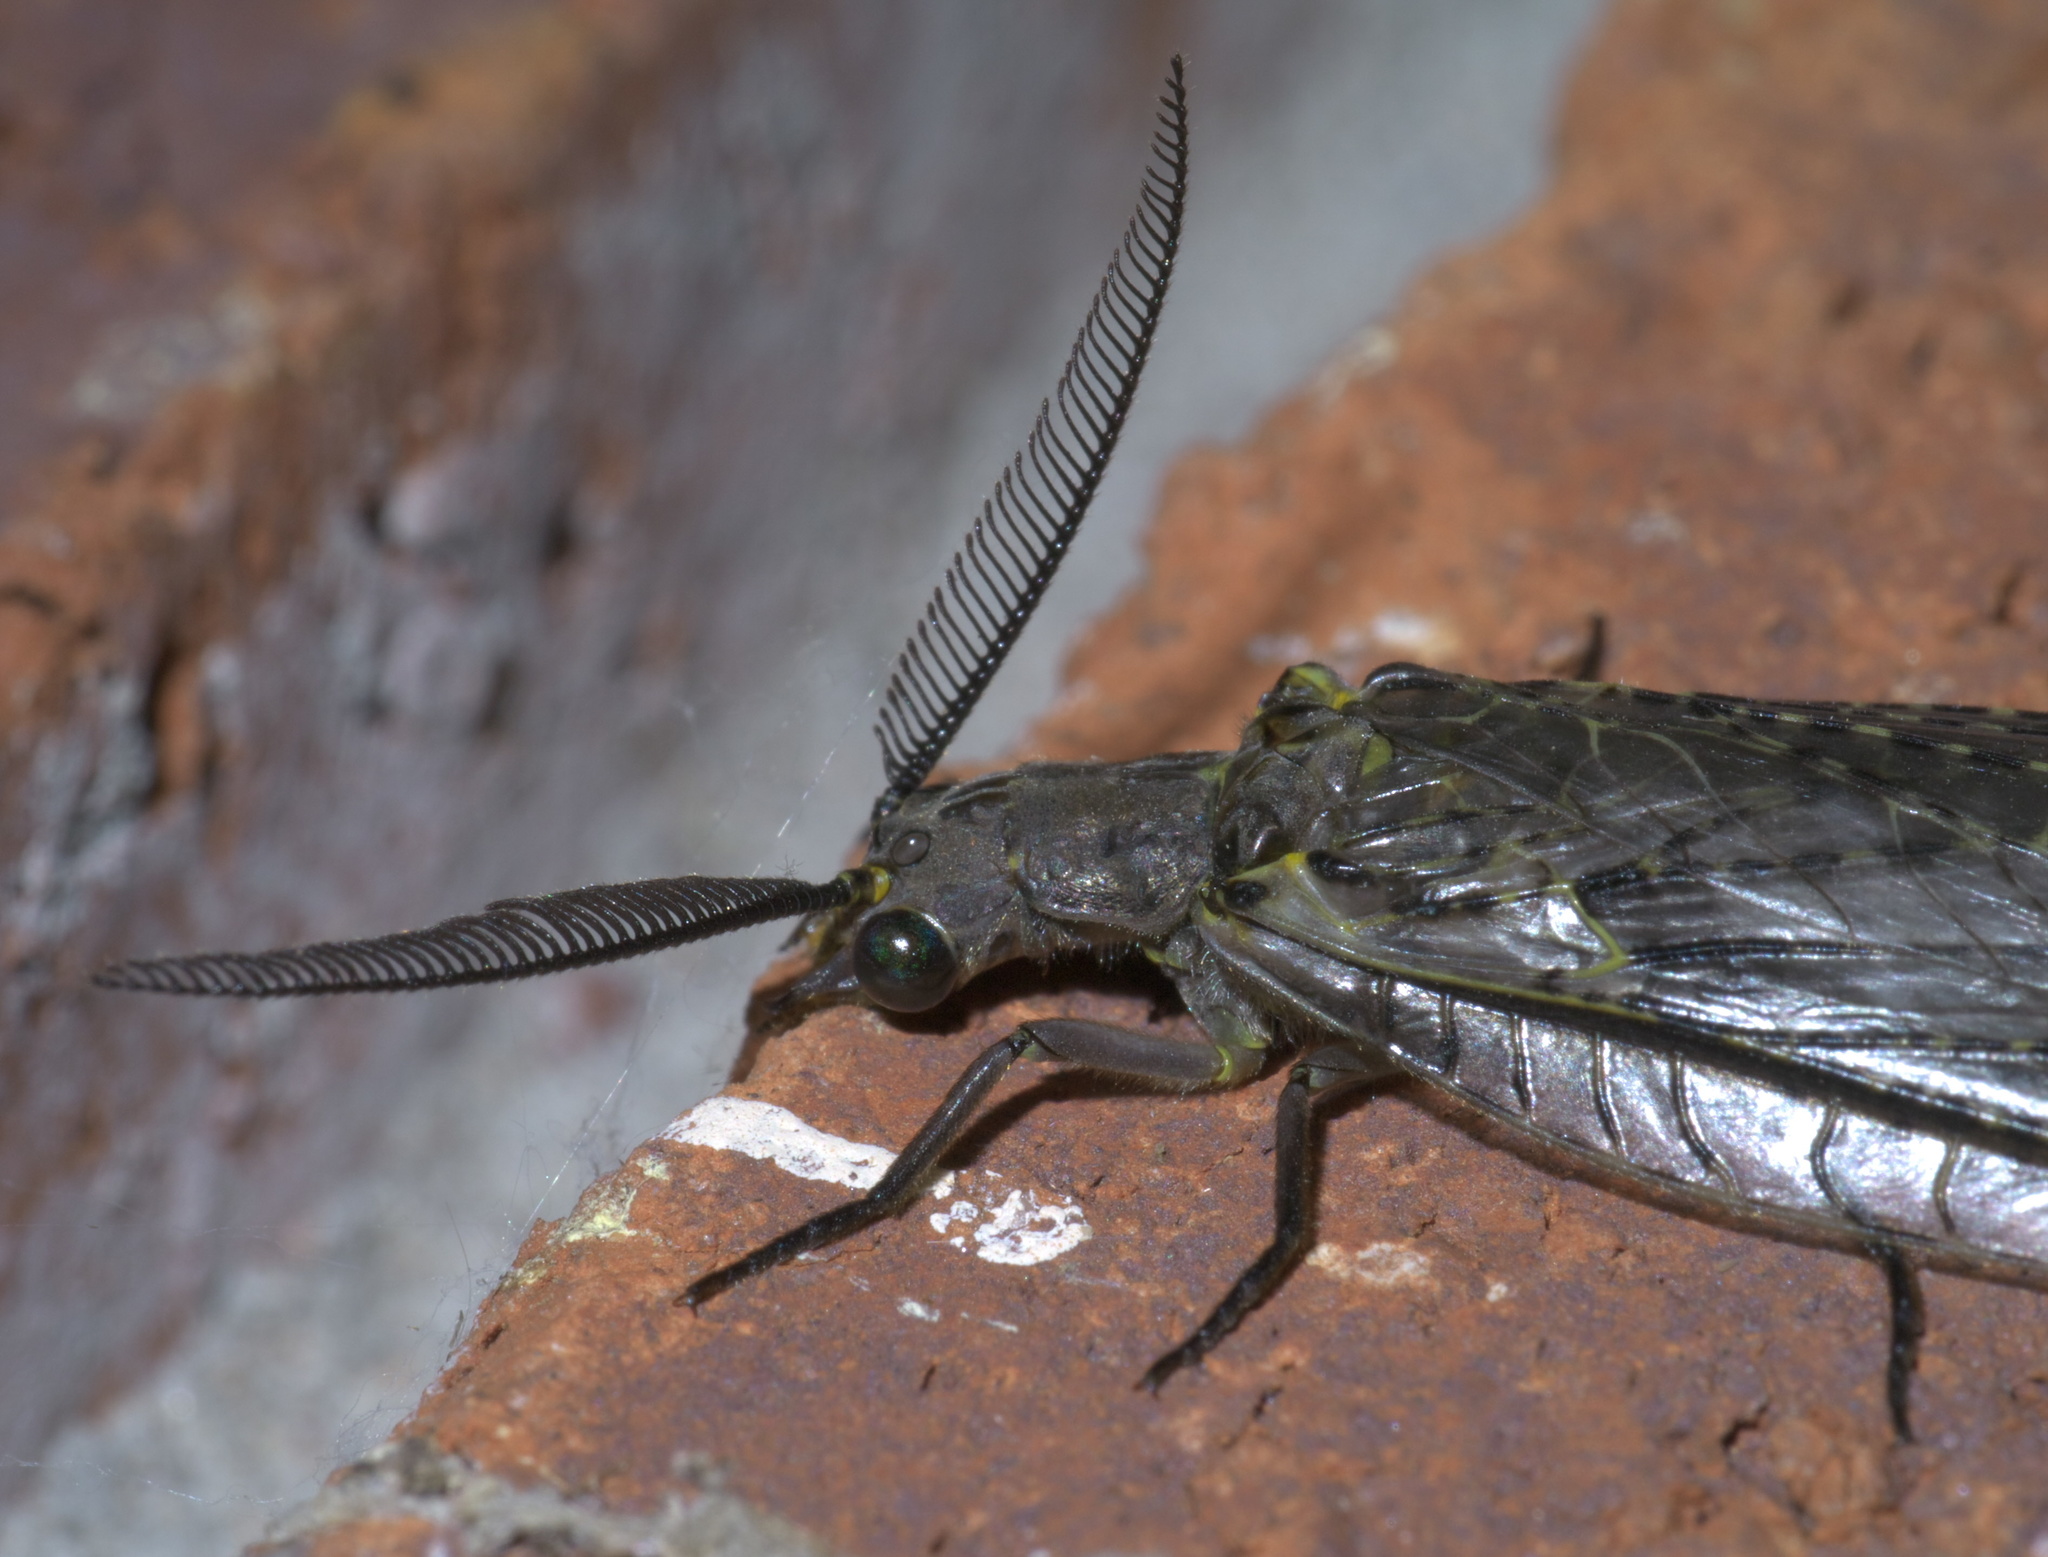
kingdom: Animalia
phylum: Arthropoda
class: Insecta
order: Megaloptera
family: Corydalidae
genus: Chauliodes
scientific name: Chauliodes rastricornis
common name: Spring fishfly
